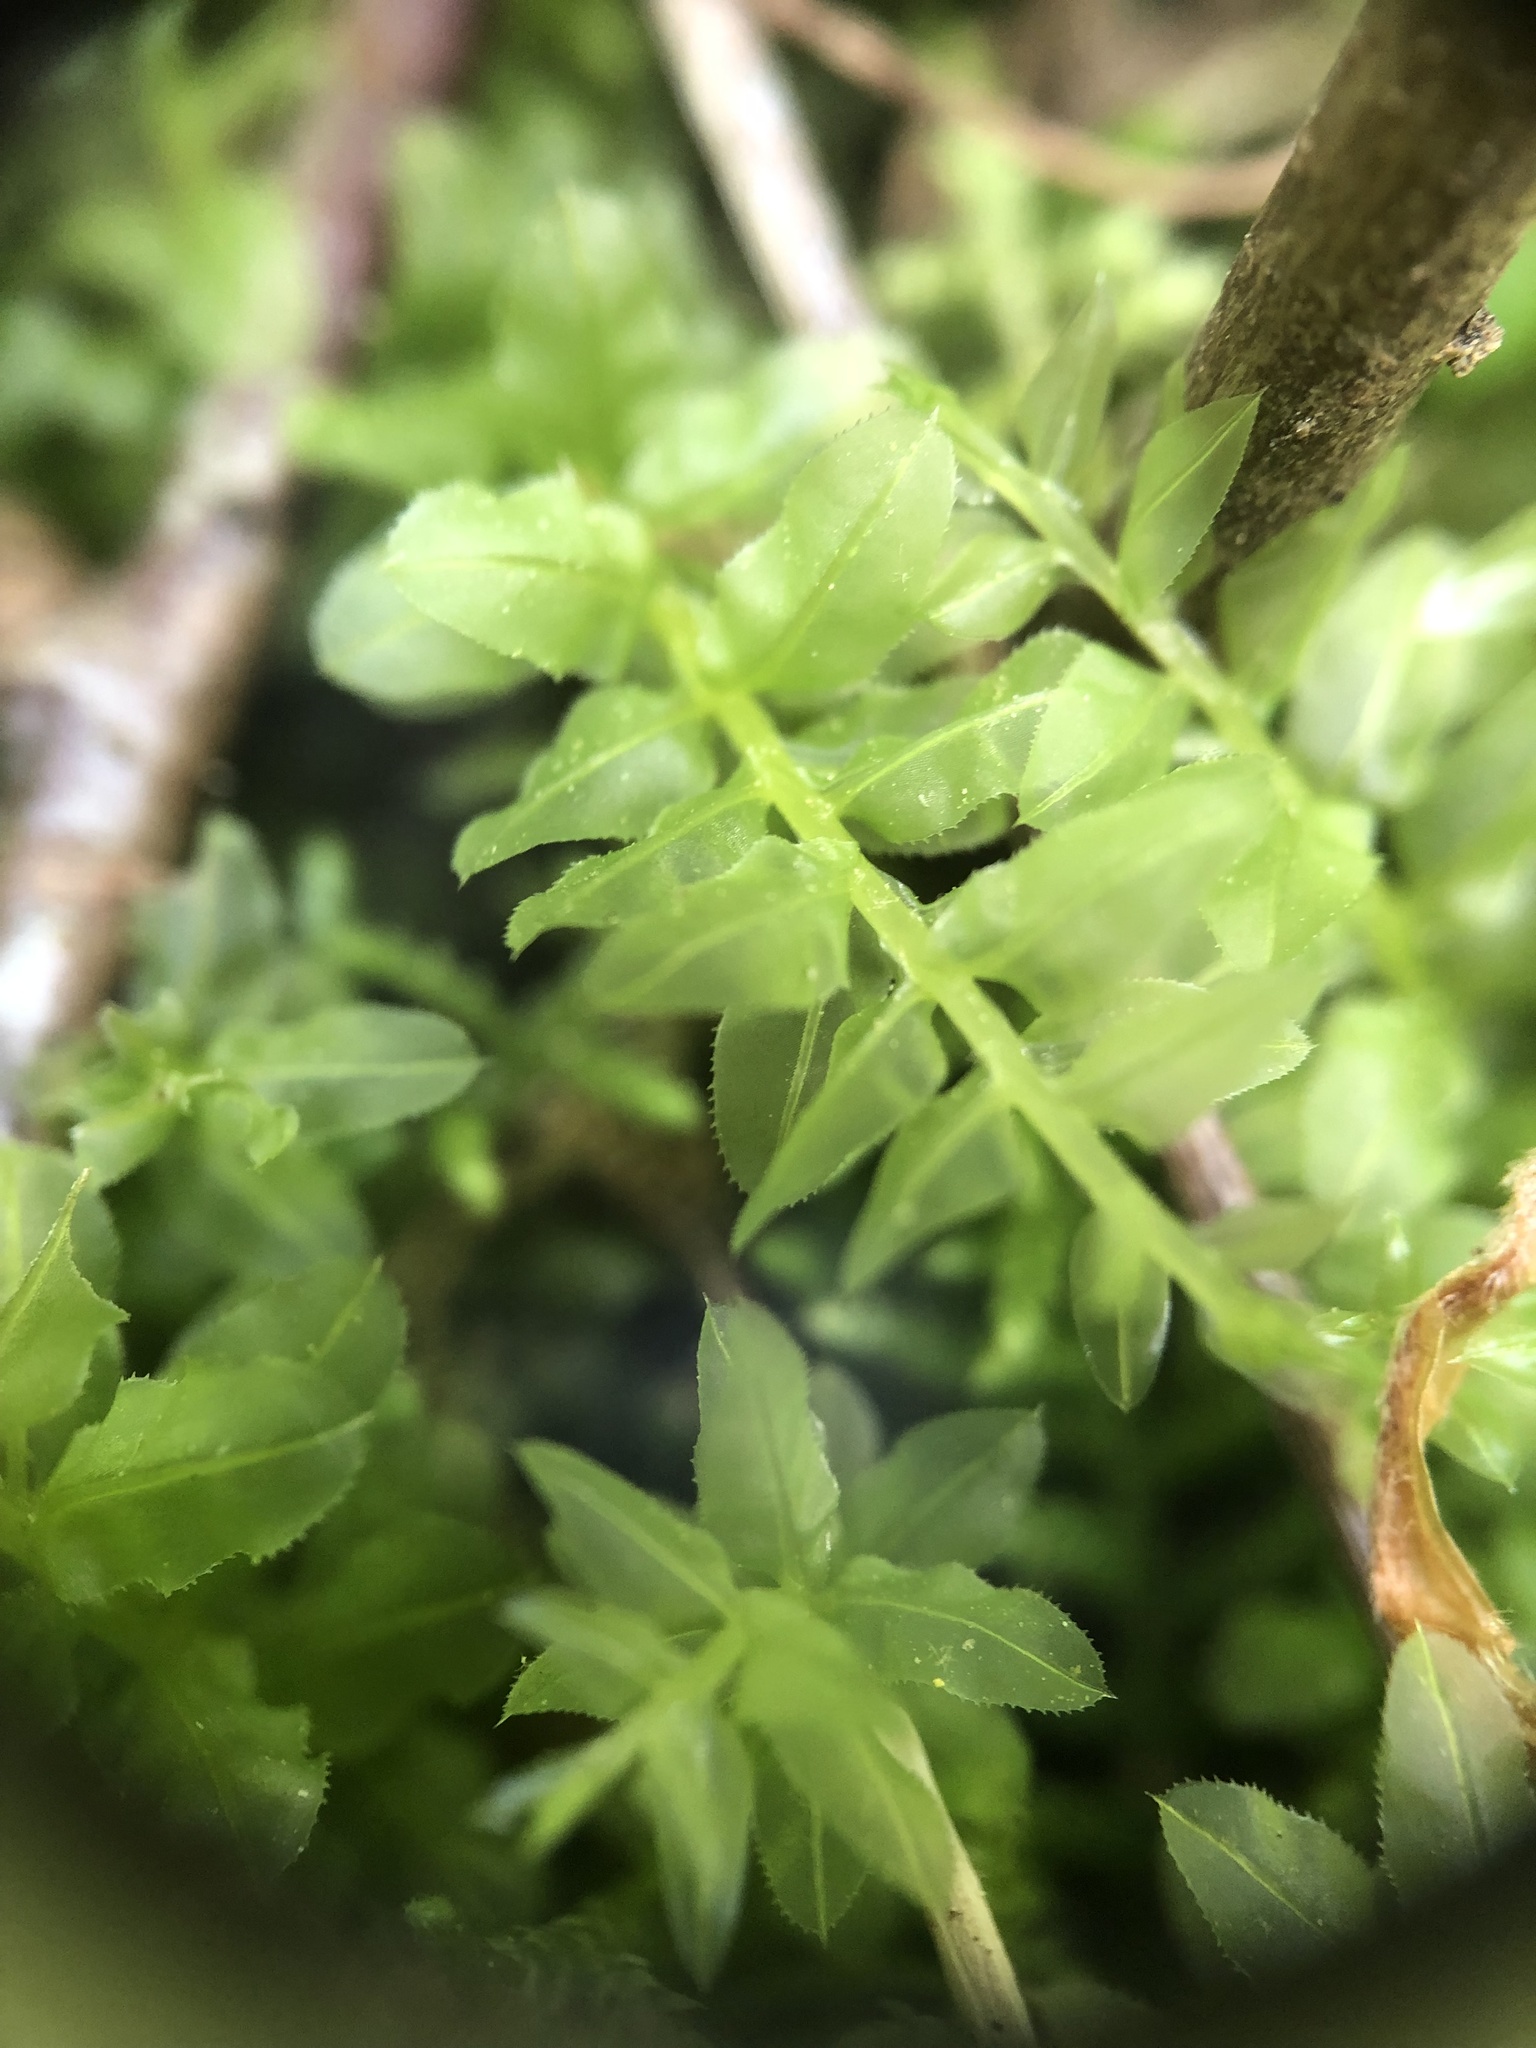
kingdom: Plantae
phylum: Bryophyta
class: Bryopsida
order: Bryales
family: Mniaceae
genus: Plagiomnium
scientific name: Plagiomnium ciliare
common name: Toothed leafy moss
